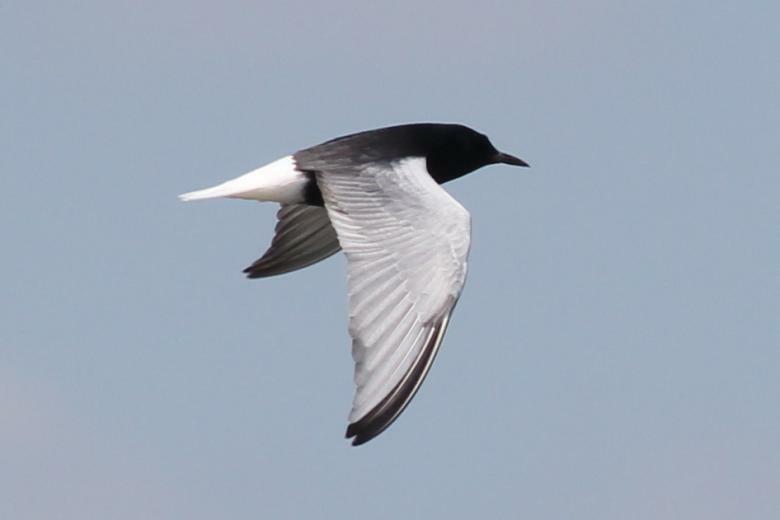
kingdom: Animalia
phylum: Chordata
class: Aves
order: Charadriiformes
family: Laridae
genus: Chlidonias
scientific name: Chlidonias leucopterus
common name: White-winged tern
